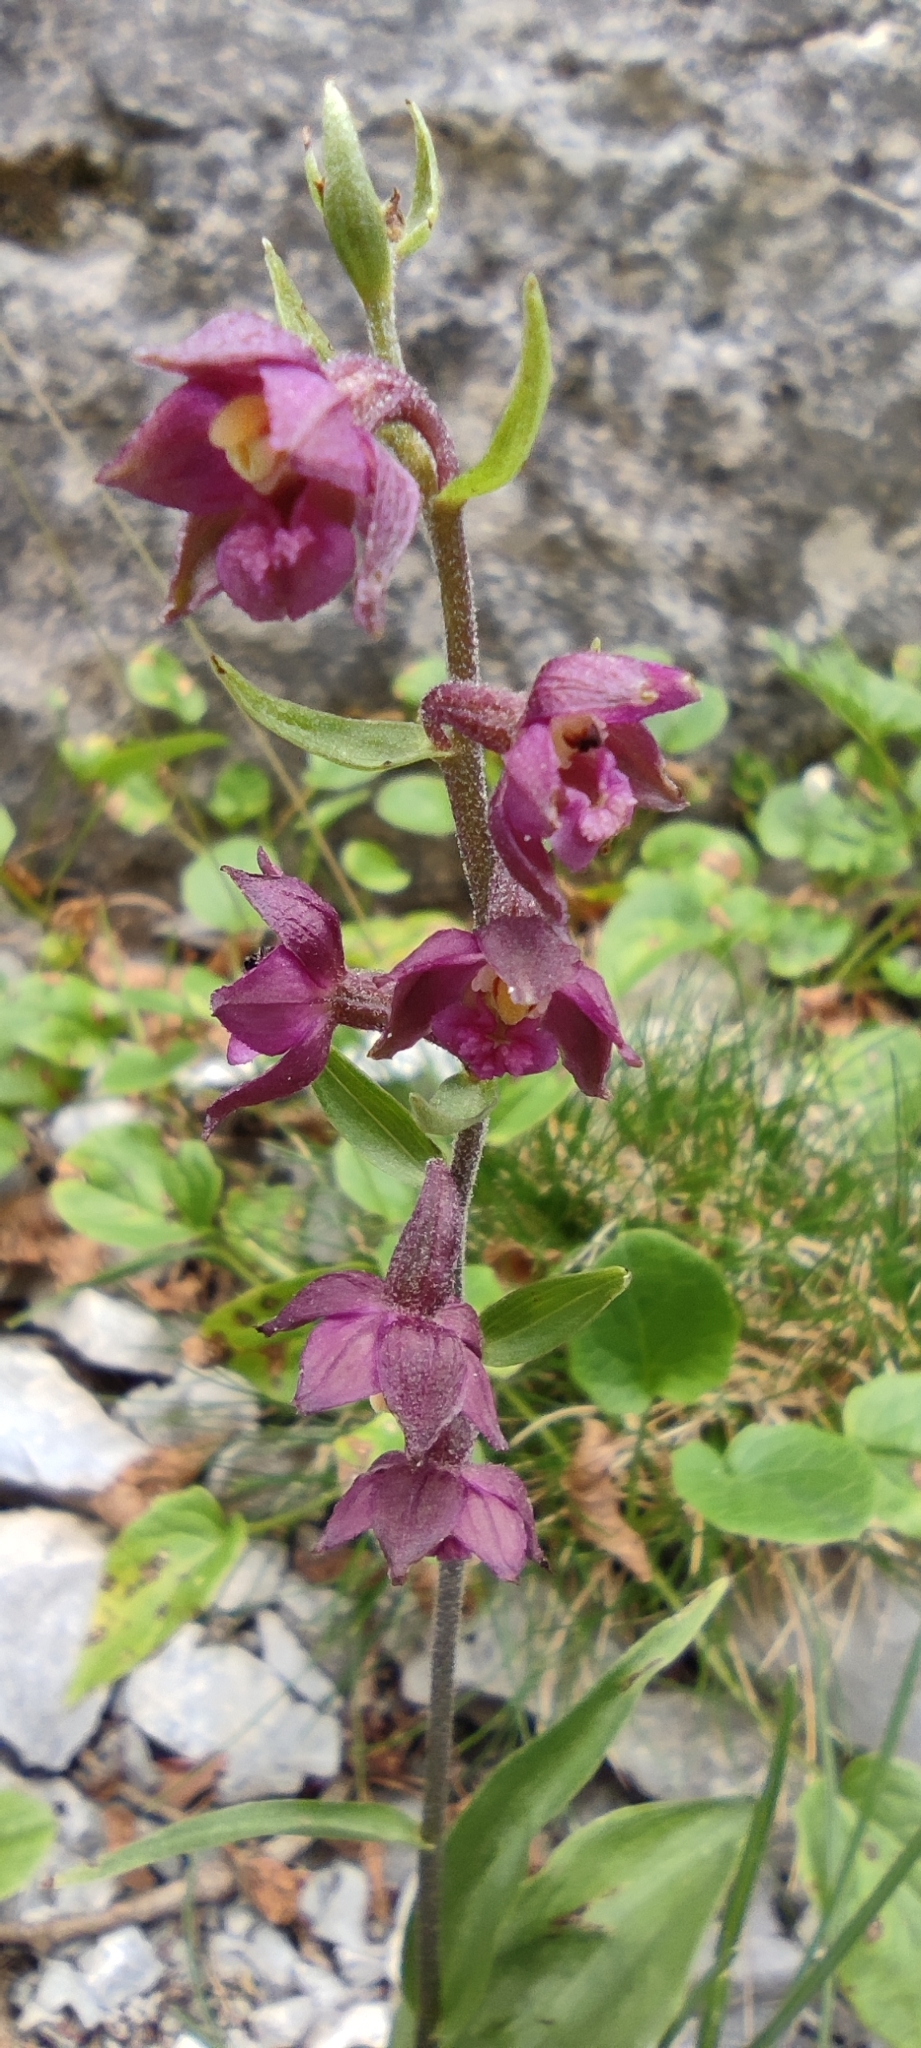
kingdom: Plantae
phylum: Tracheophyta
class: Liliopsida
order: Asparagales
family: Orchidaceae
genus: Epipactis
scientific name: Epipactis atrorubens
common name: Dark-red helleborine
